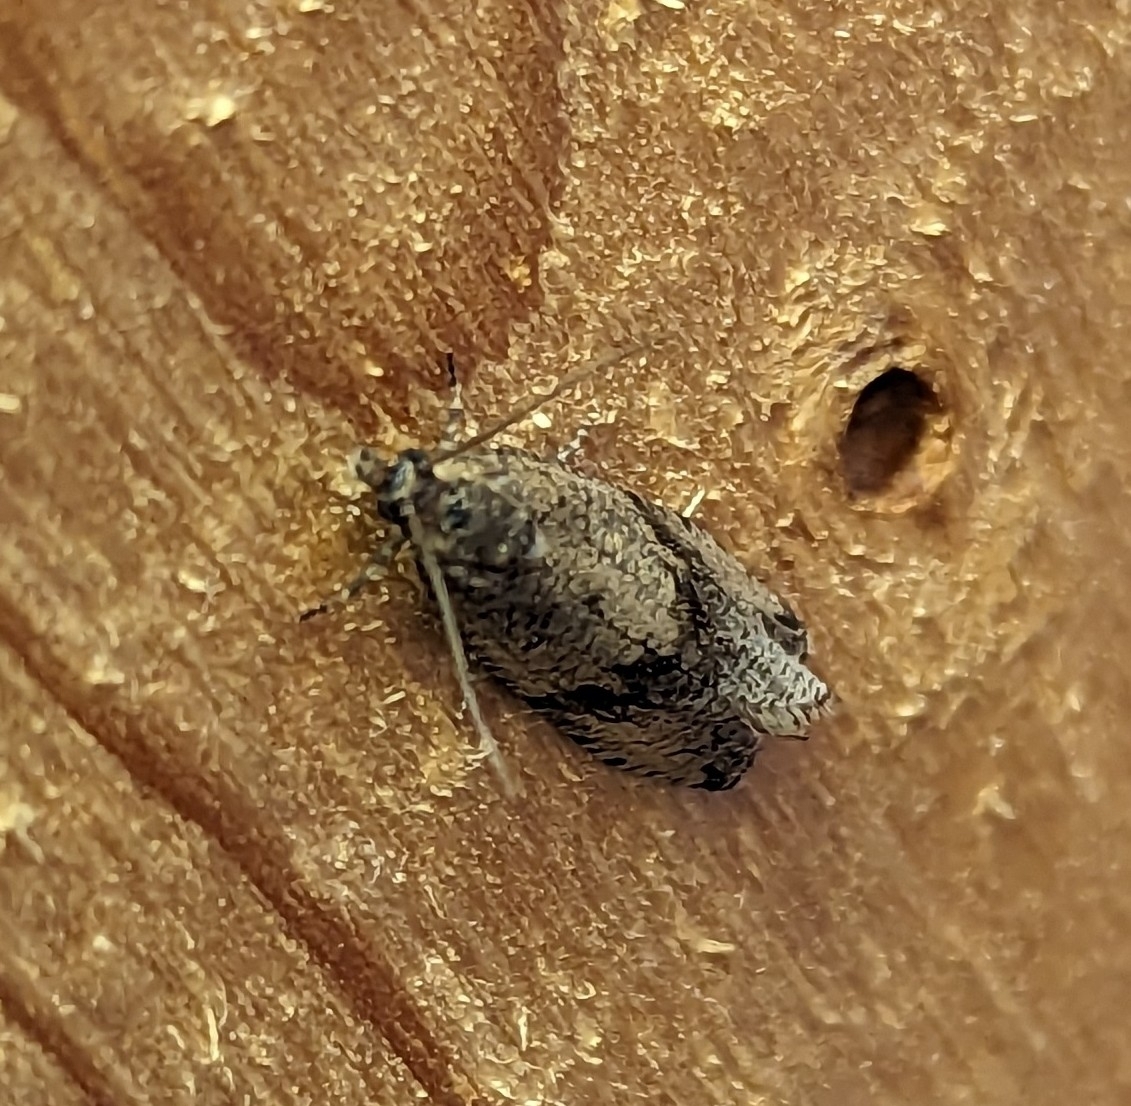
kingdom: Animalia
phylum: Arthropoda
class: Insecta
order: Lepidoptera
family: Tortricidae
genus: Celypha
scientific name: Celypha striana
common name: Barred marble
